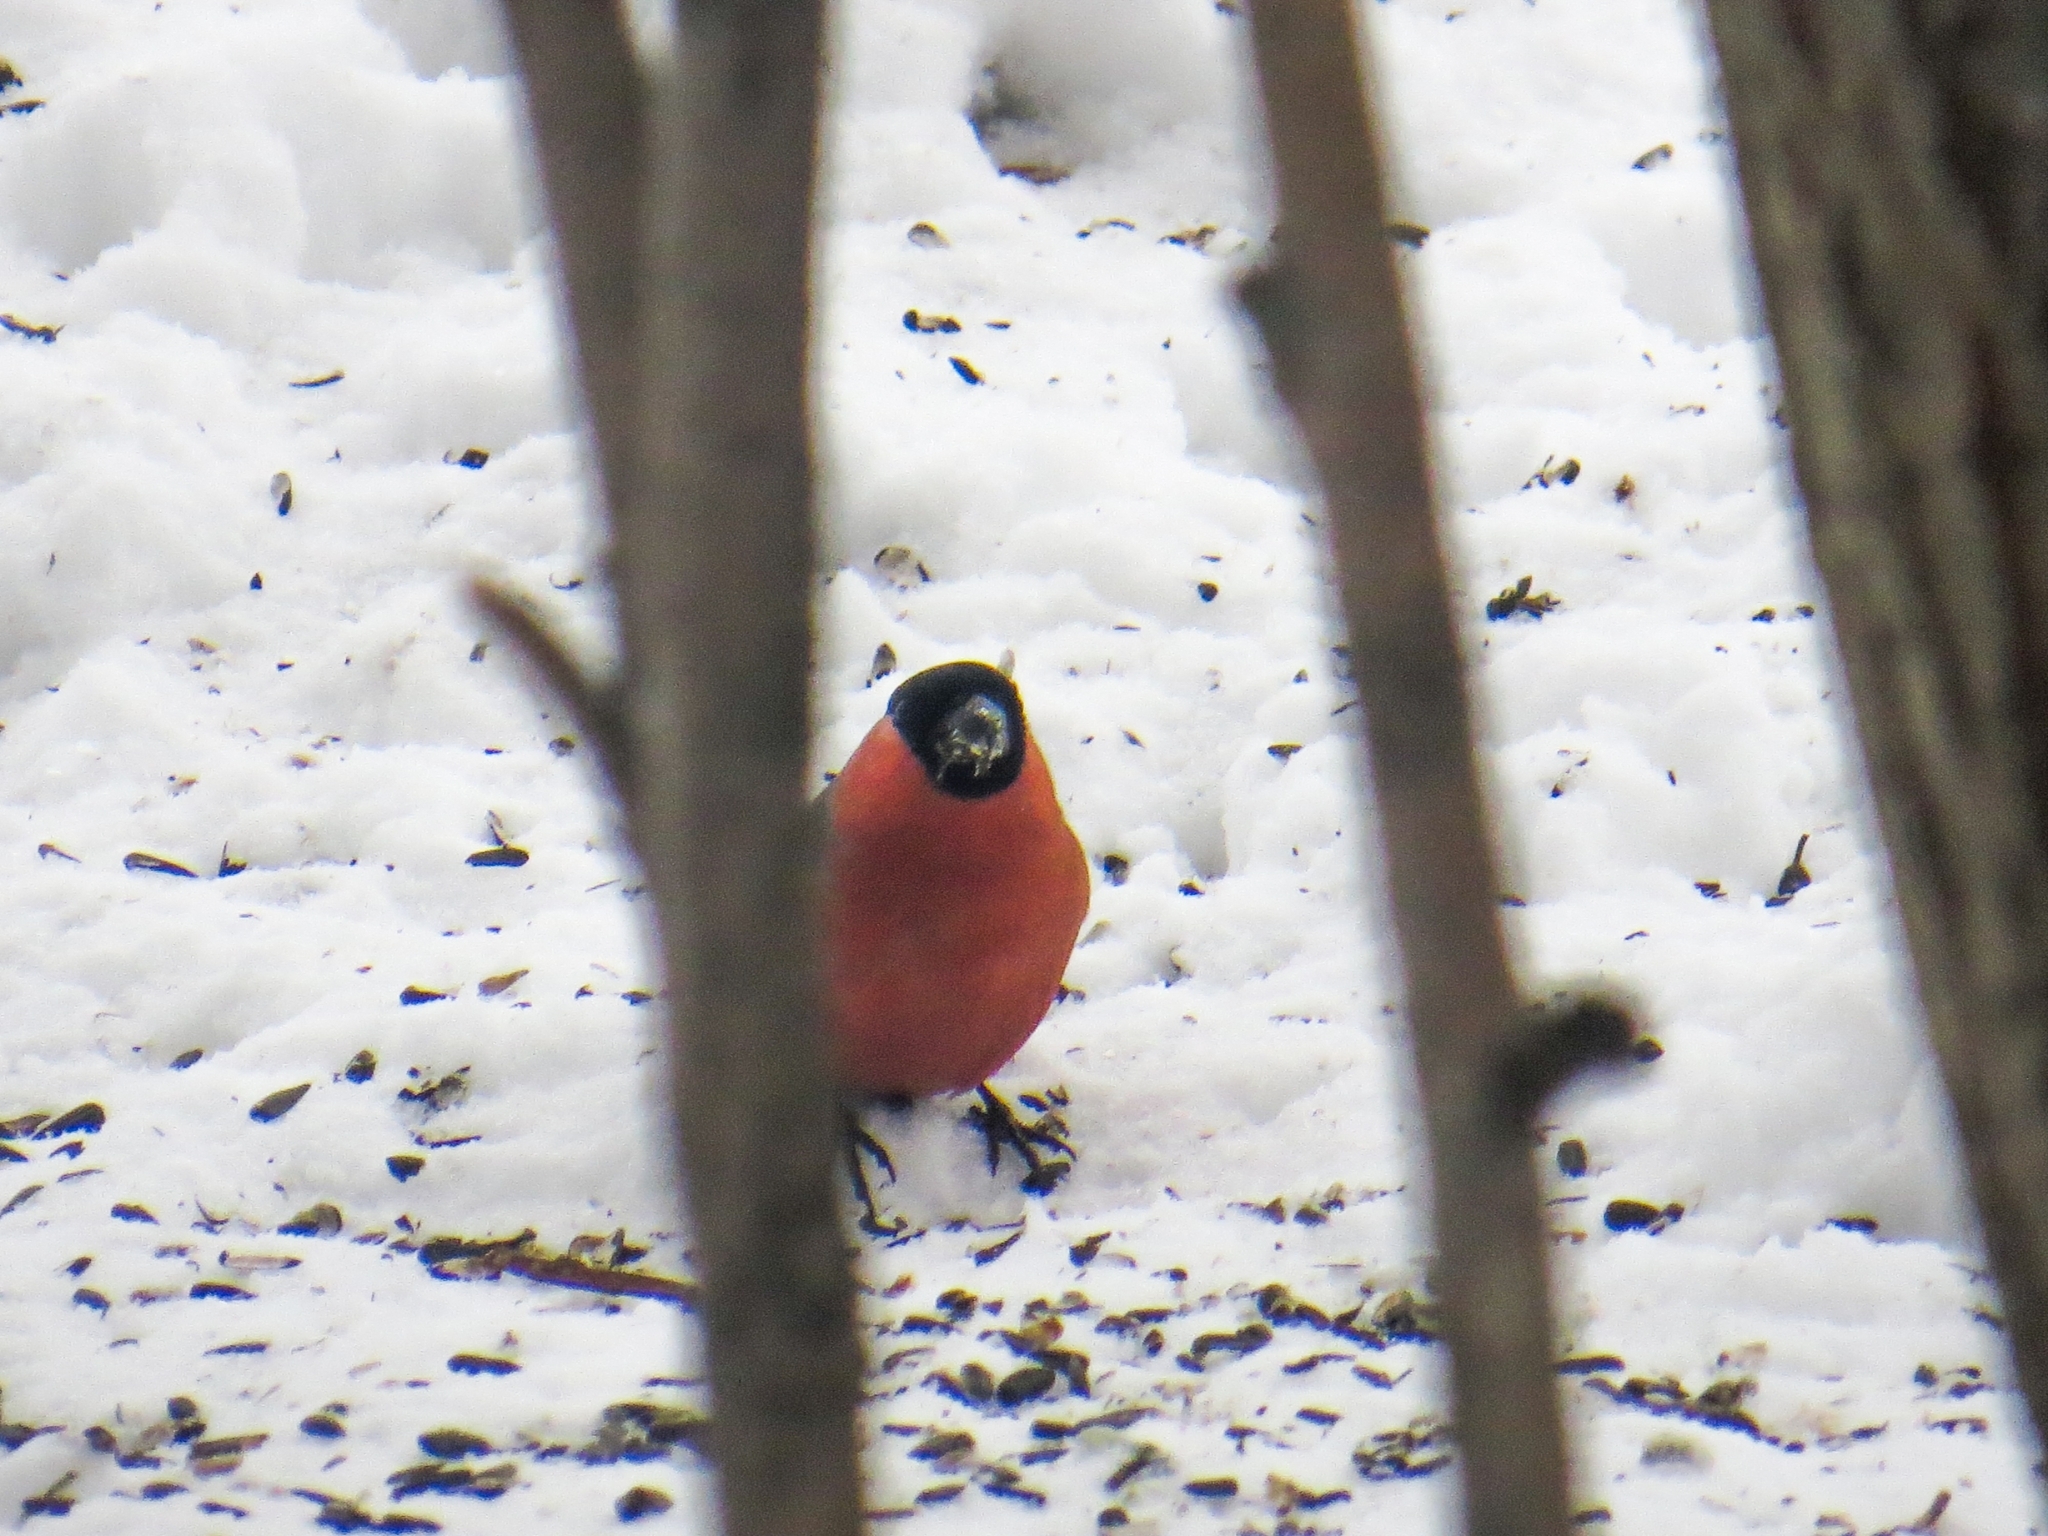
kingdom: Animalia
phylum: Chordata
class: Aves
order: Passeriformes
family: Fringillidae
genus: Pyrrhula
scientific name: Pyrrhula pyrrhula
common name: Eurasian bullfinch
